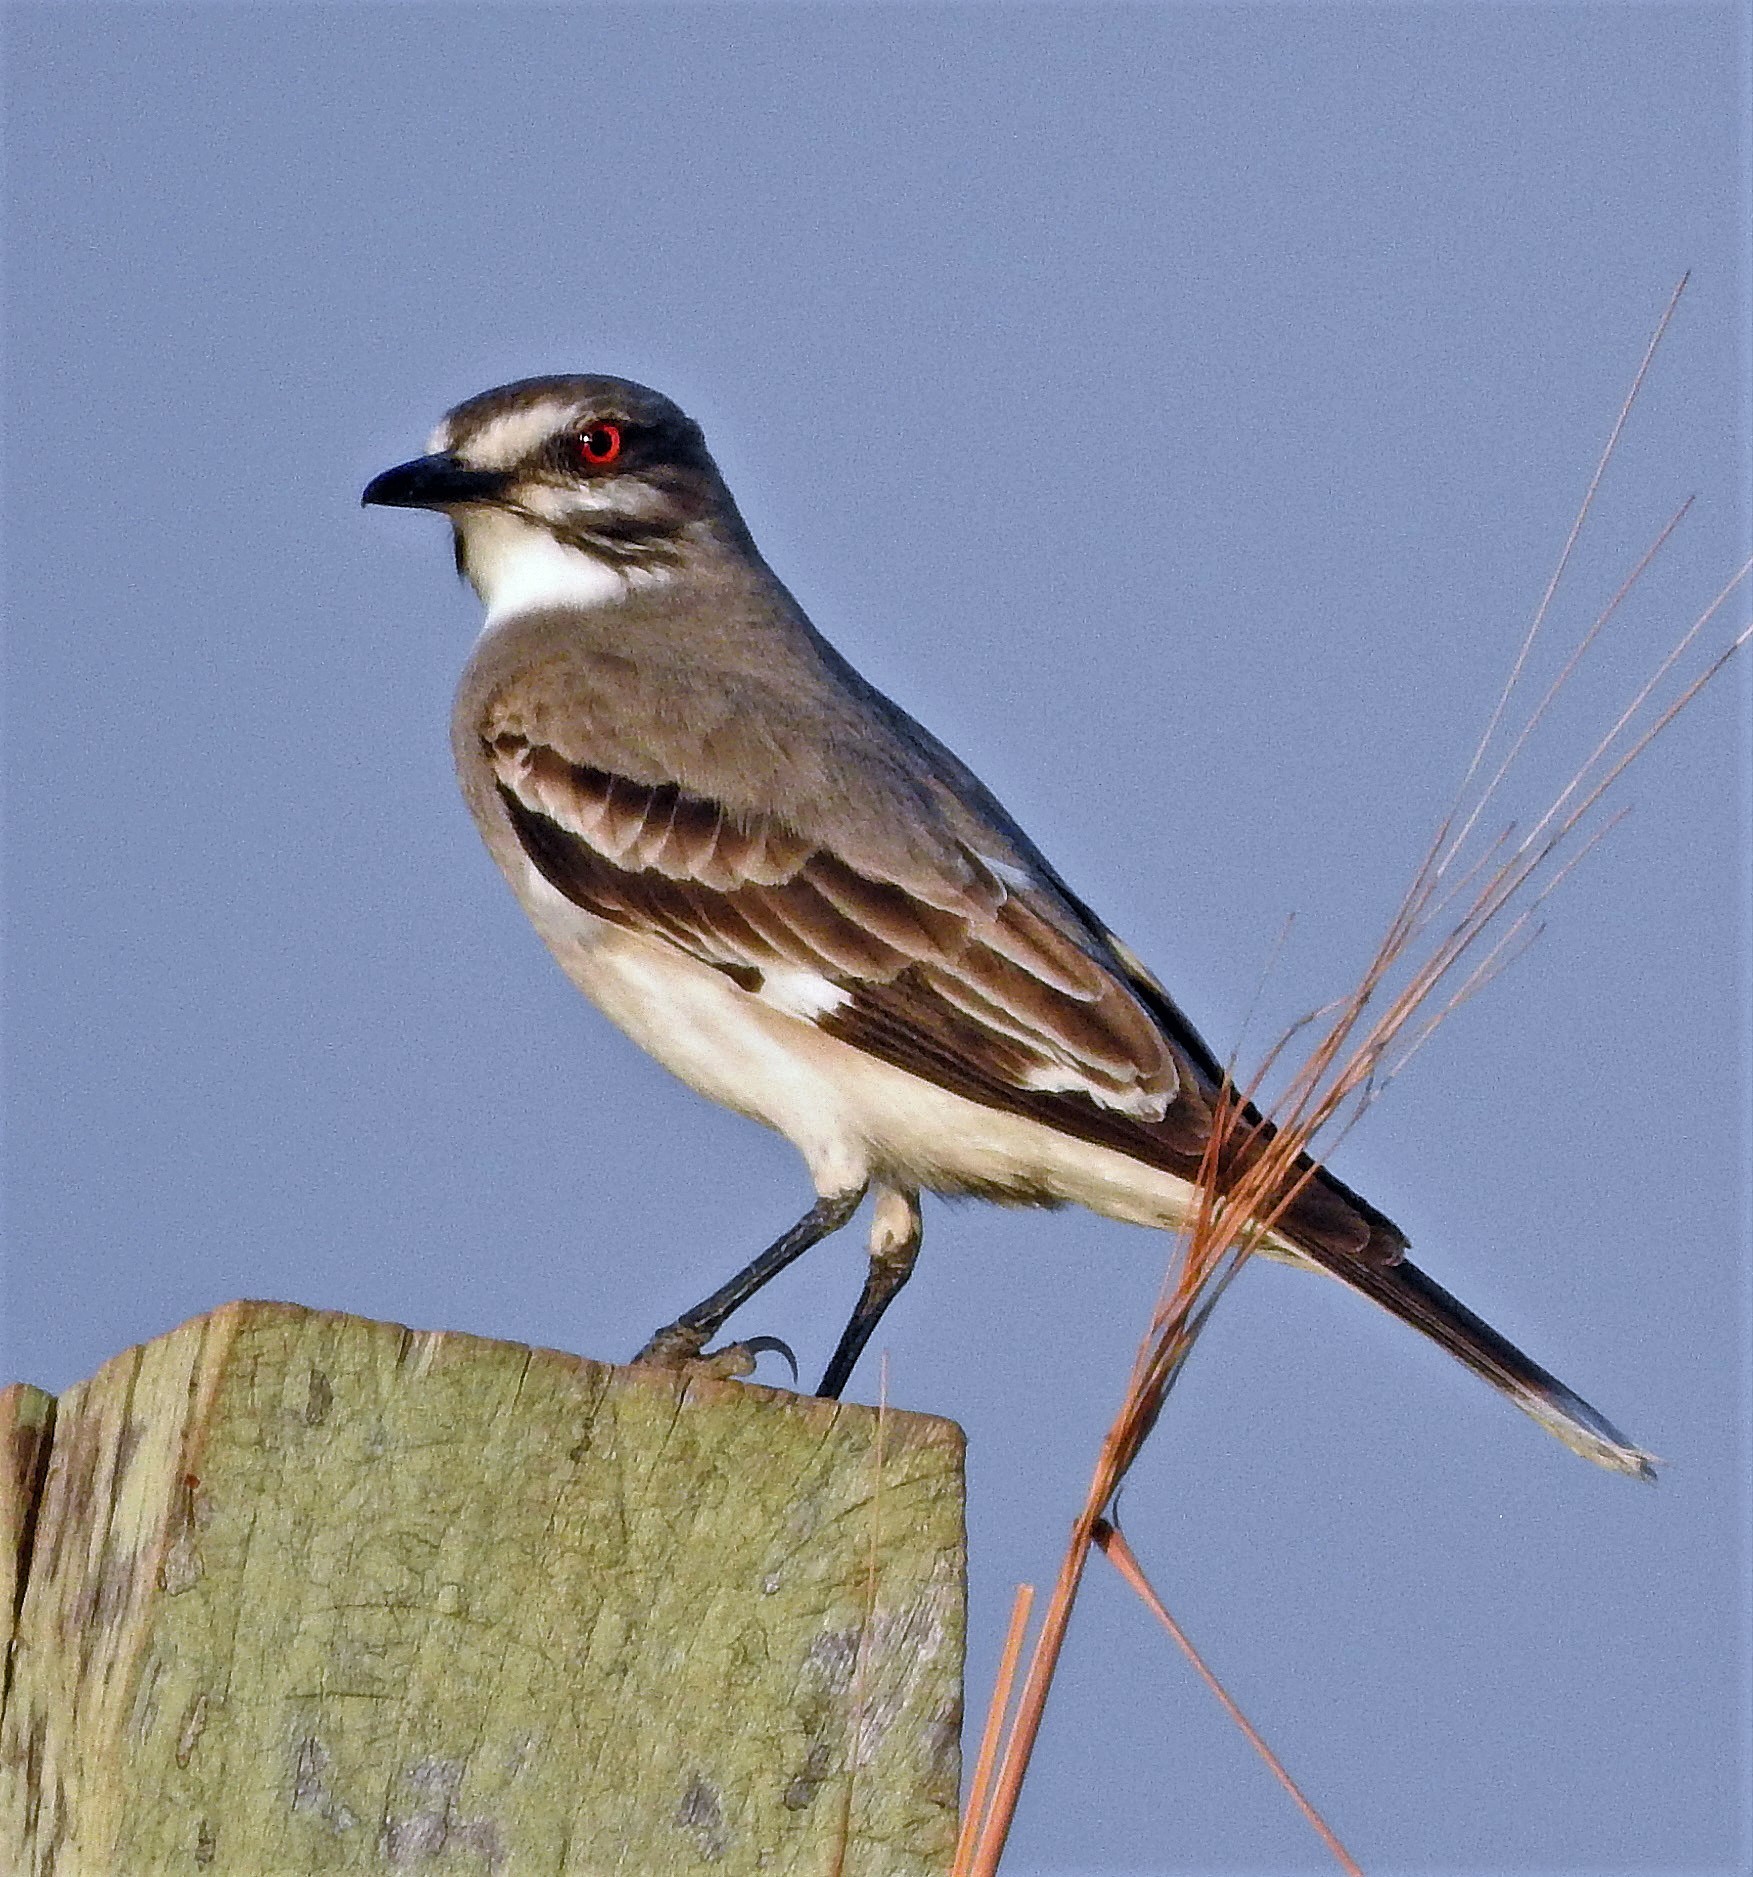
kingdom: Animalia
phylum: Chordata
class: Aves
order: Passeriformes
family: Tyrannidae
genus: Xolmis
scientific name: Xolmis cinereus
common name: Grey monjita
